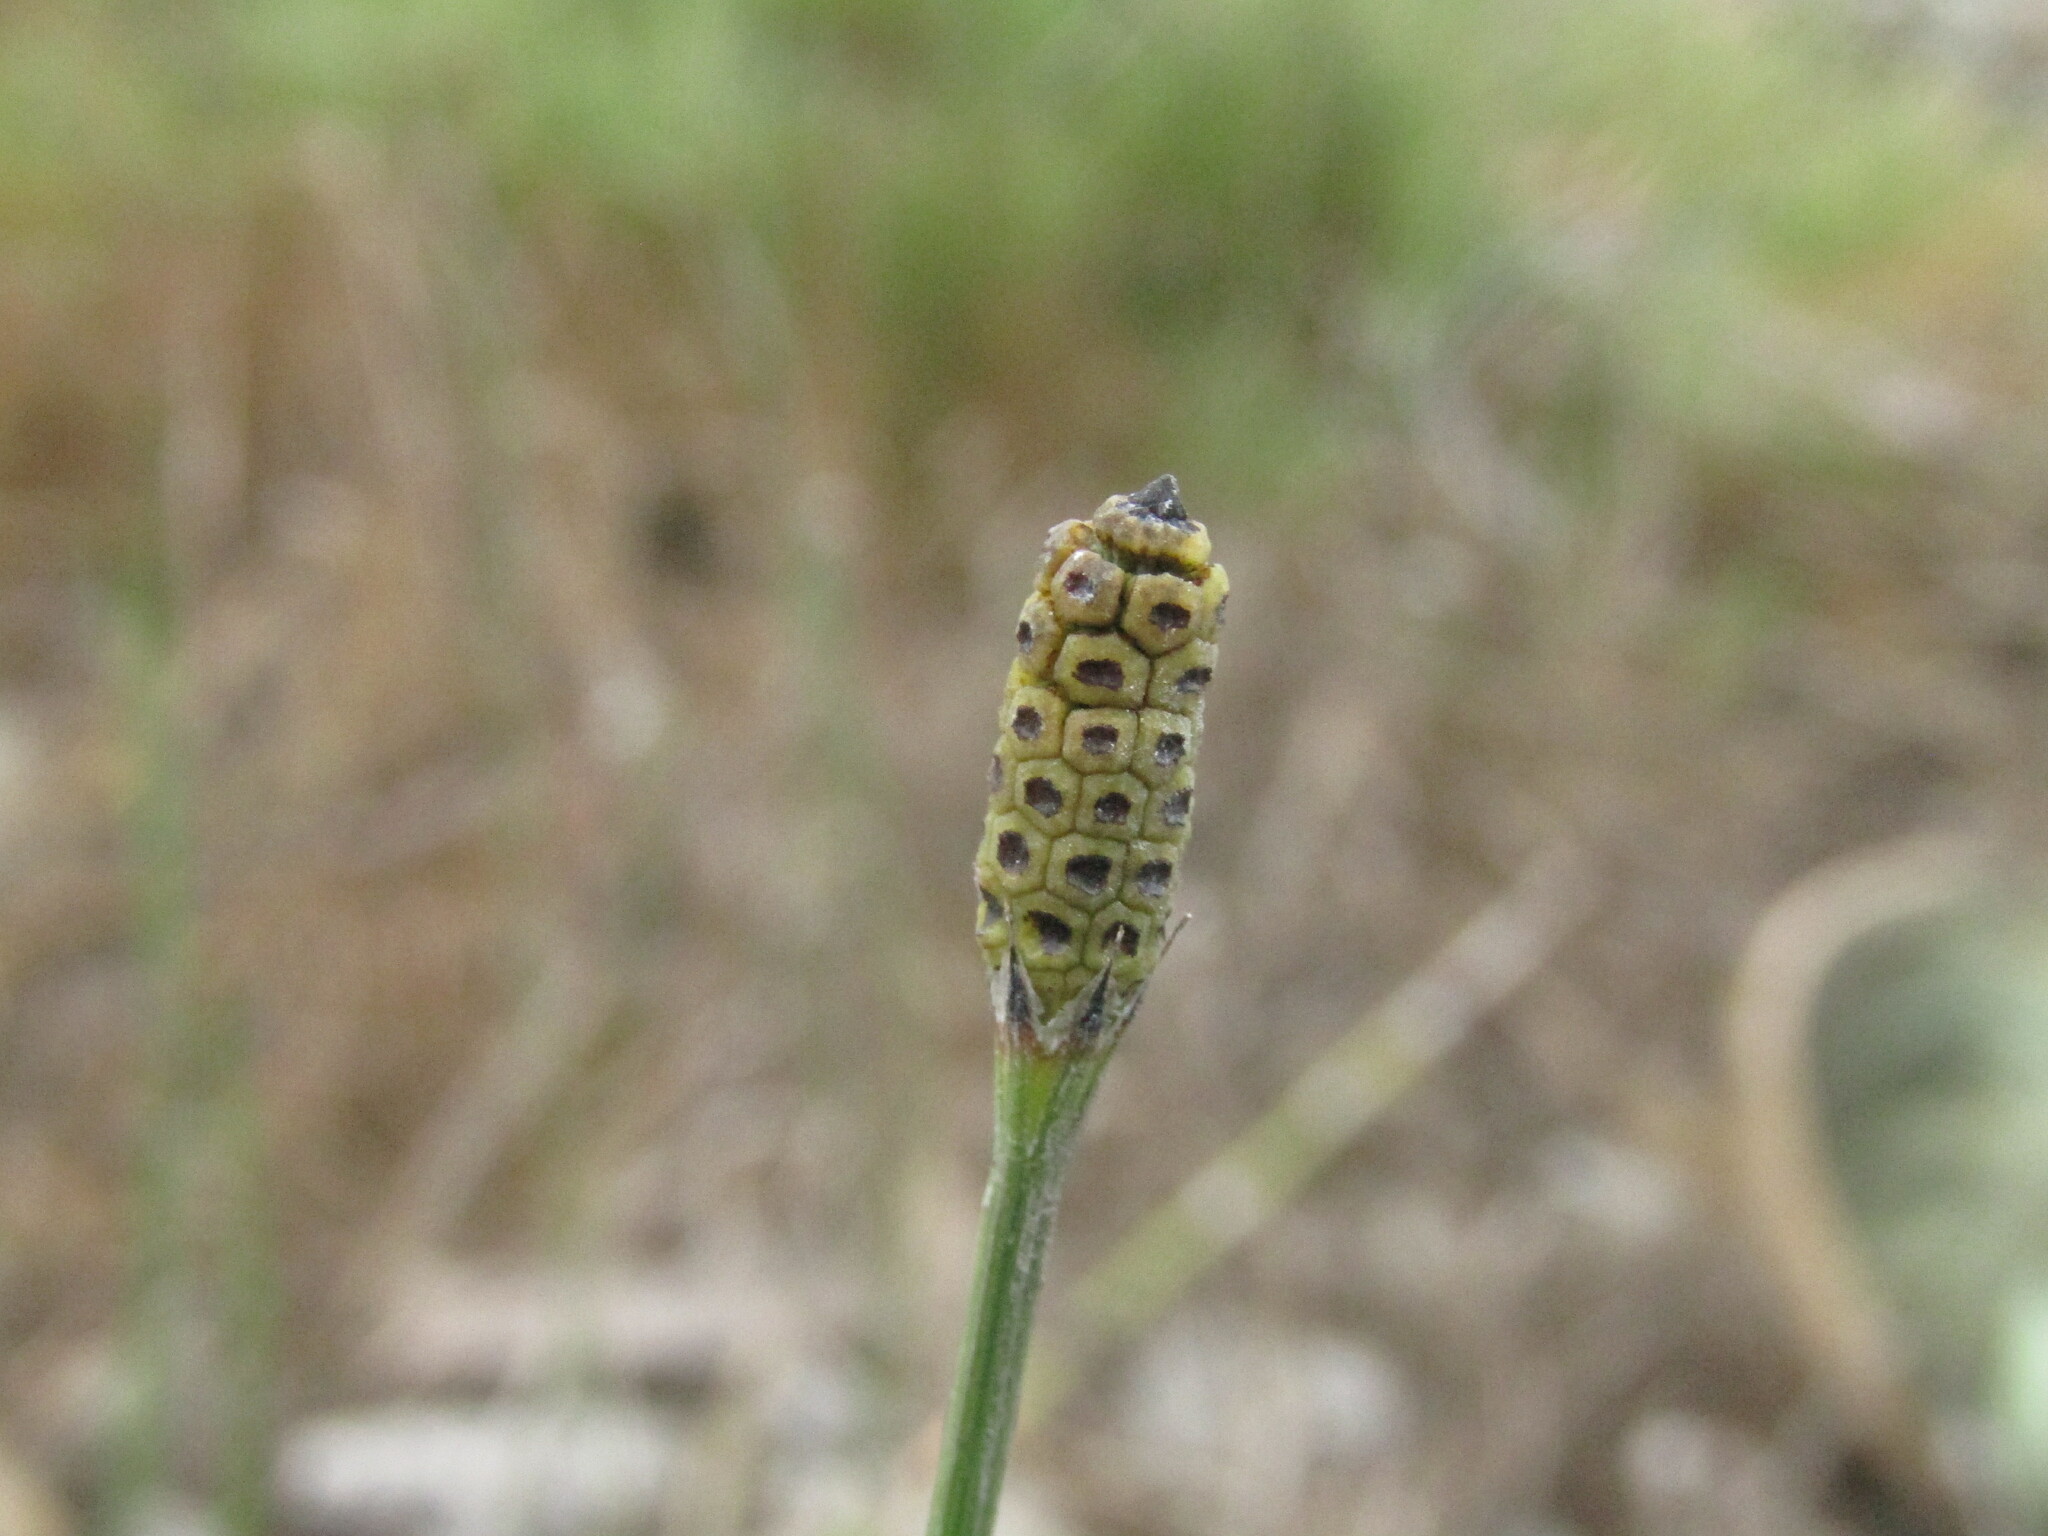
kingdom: Plantae
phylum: Tracheophyta
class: Polypodiopsida
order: Equisetales
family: Equisetaceae
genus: Equisetum
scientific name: Equisetum bogotense
